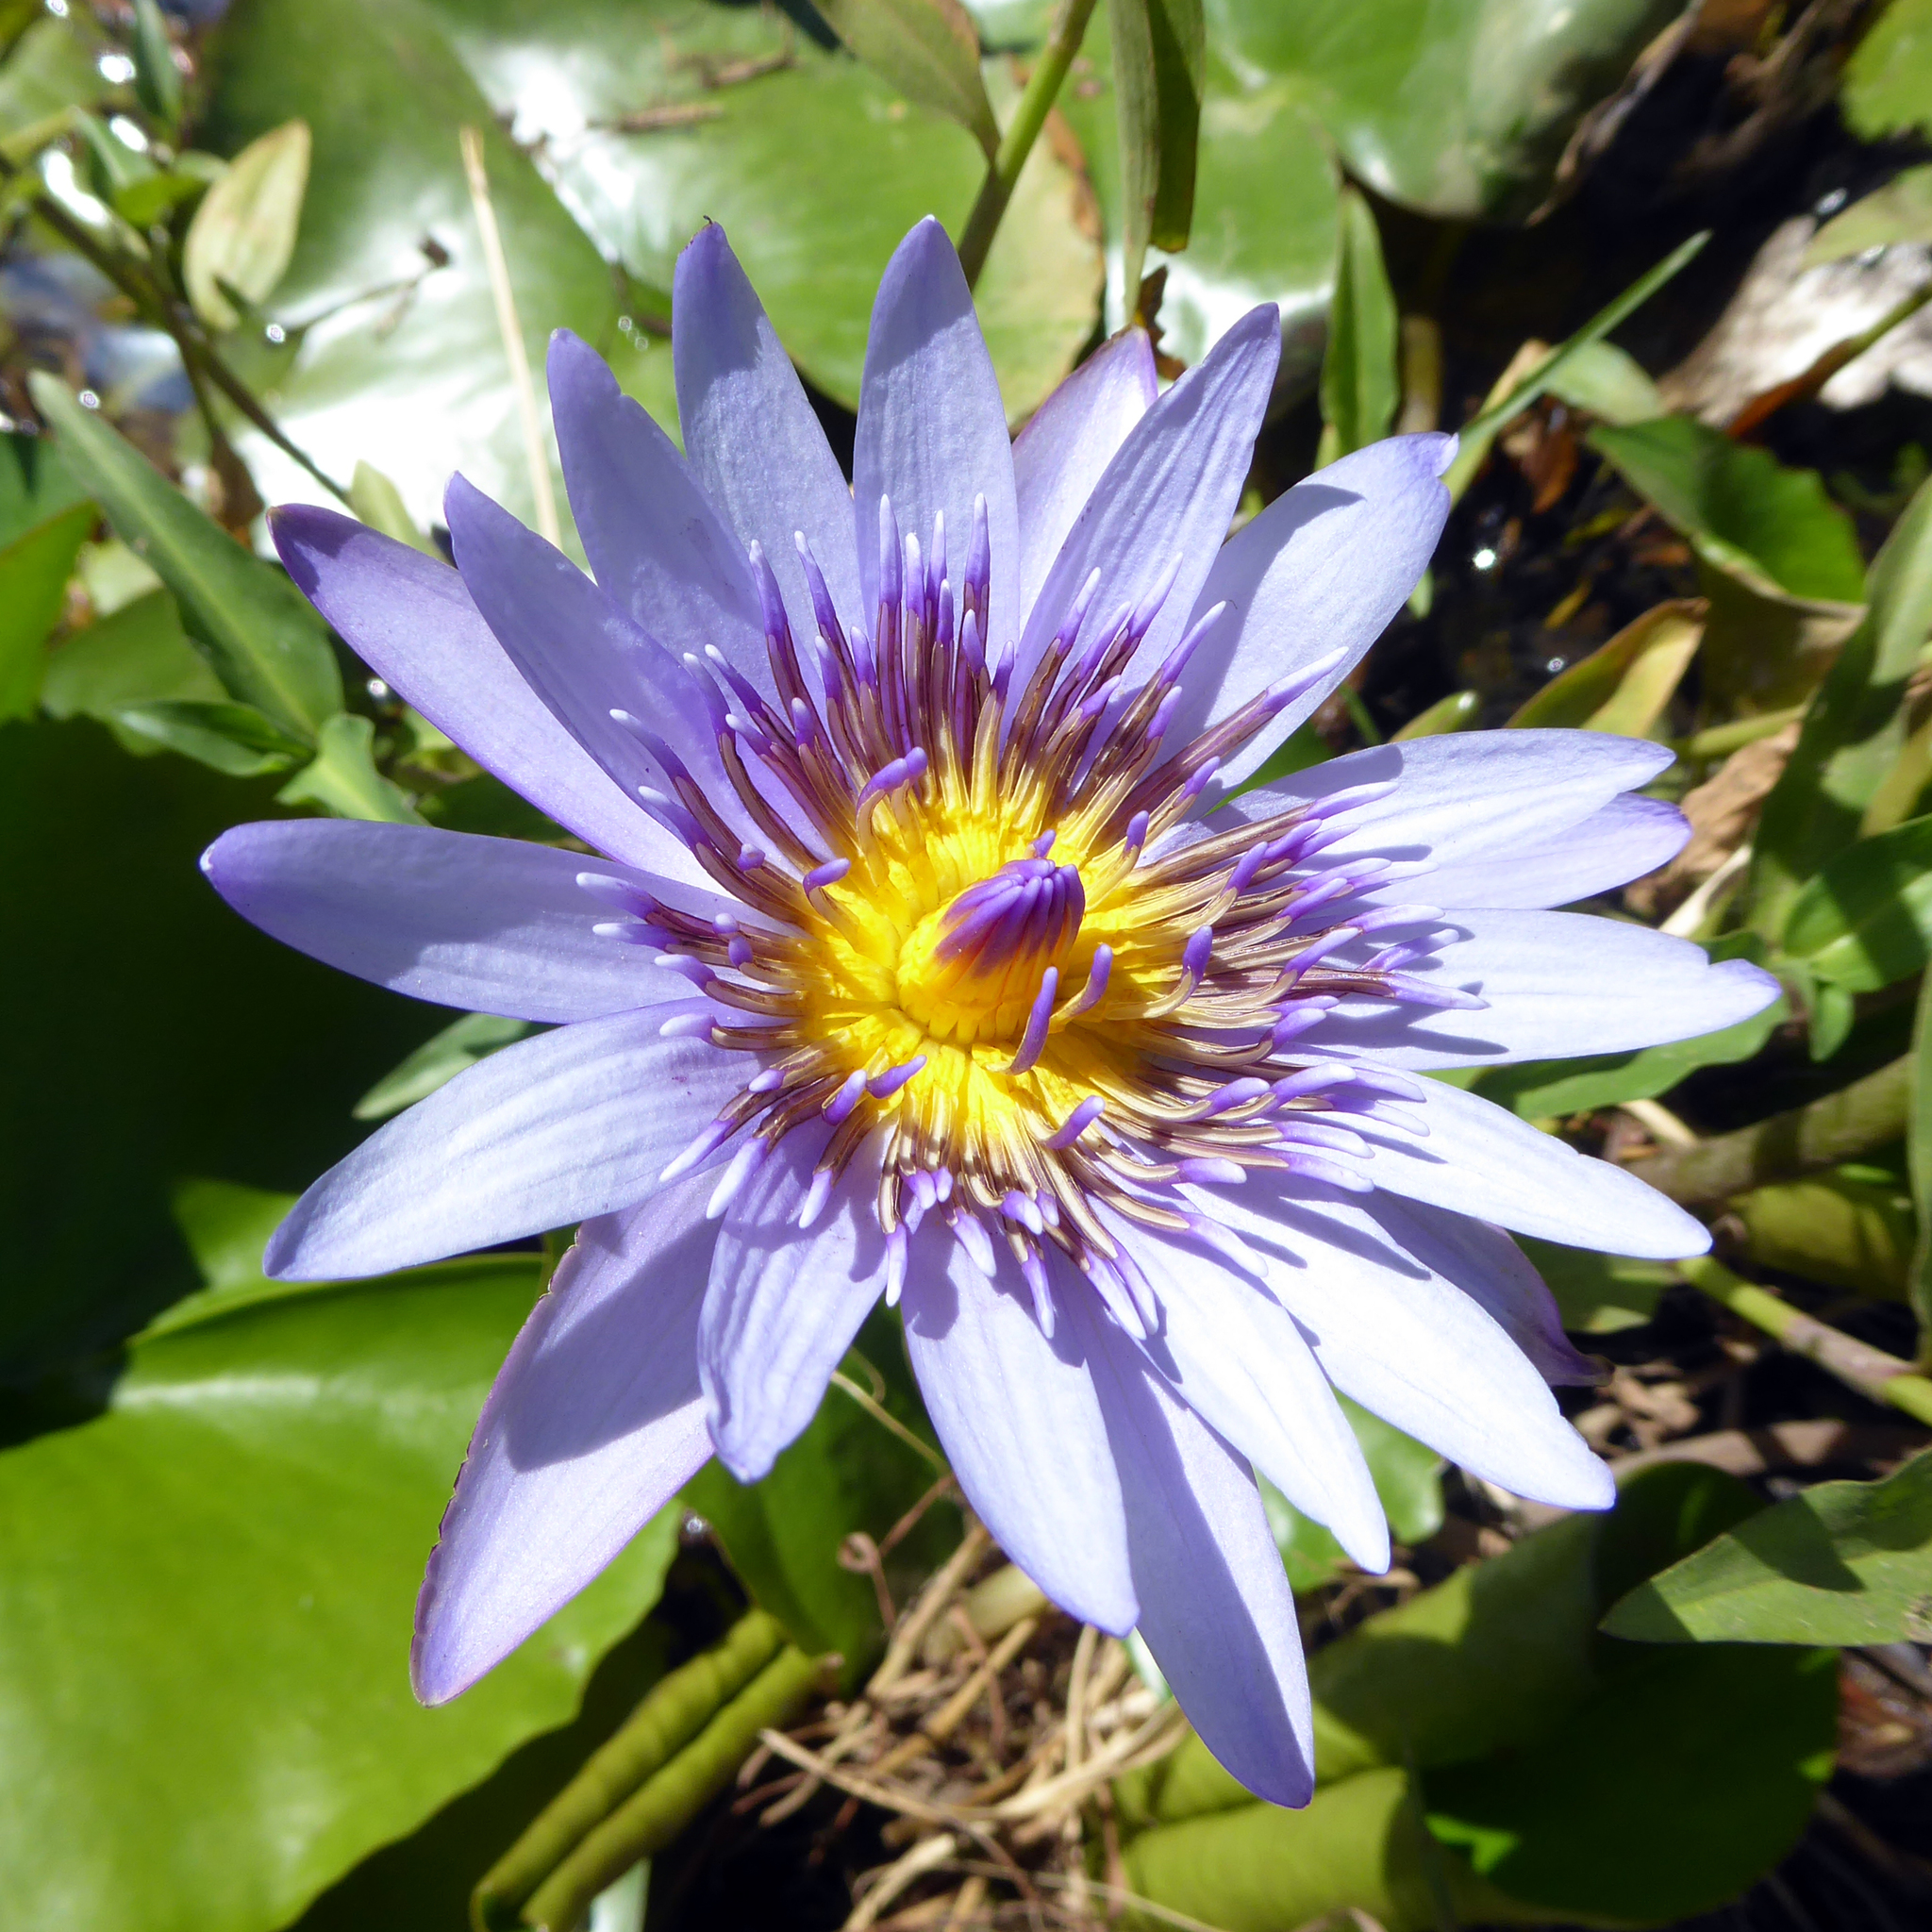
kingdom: Plantae
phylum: Tracheophyta
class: Magnoliopsida
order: Nymphaeales
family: Nymphaeaceae
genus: Nymphaea
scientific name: Nymphaea nouchali
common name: Blue lotus
